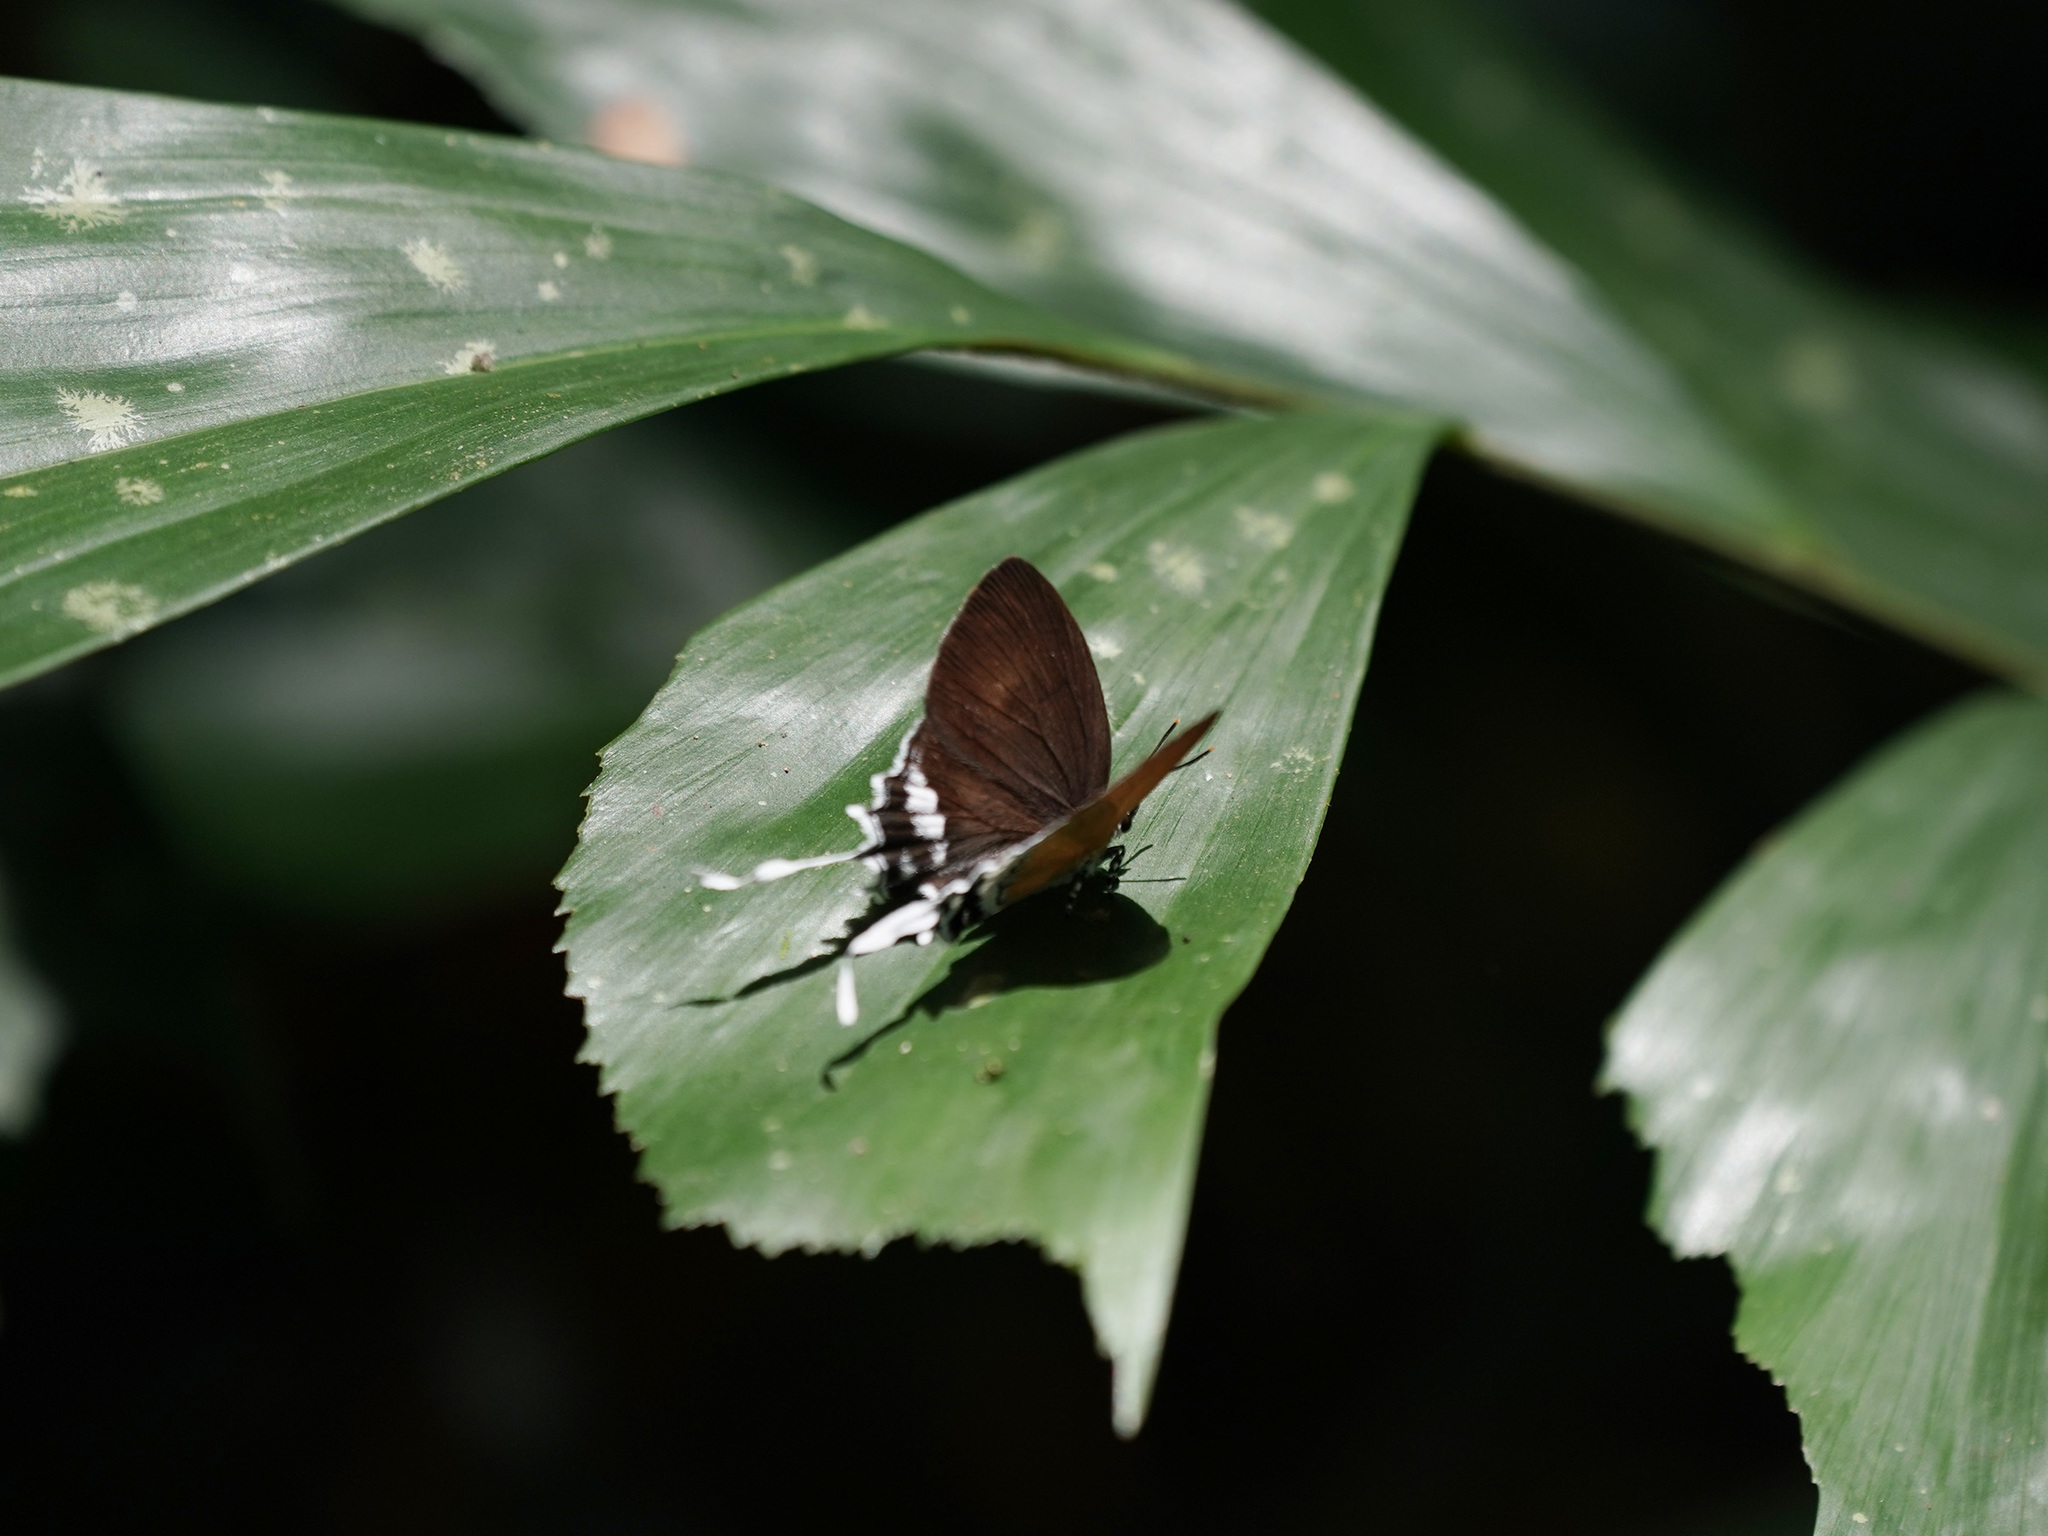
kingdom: Animalia
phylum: Arthropoda
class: Insecta
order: Lepidoptera
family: Lycaenidae
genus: Eooxylides
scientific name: Eooxylides tharis
